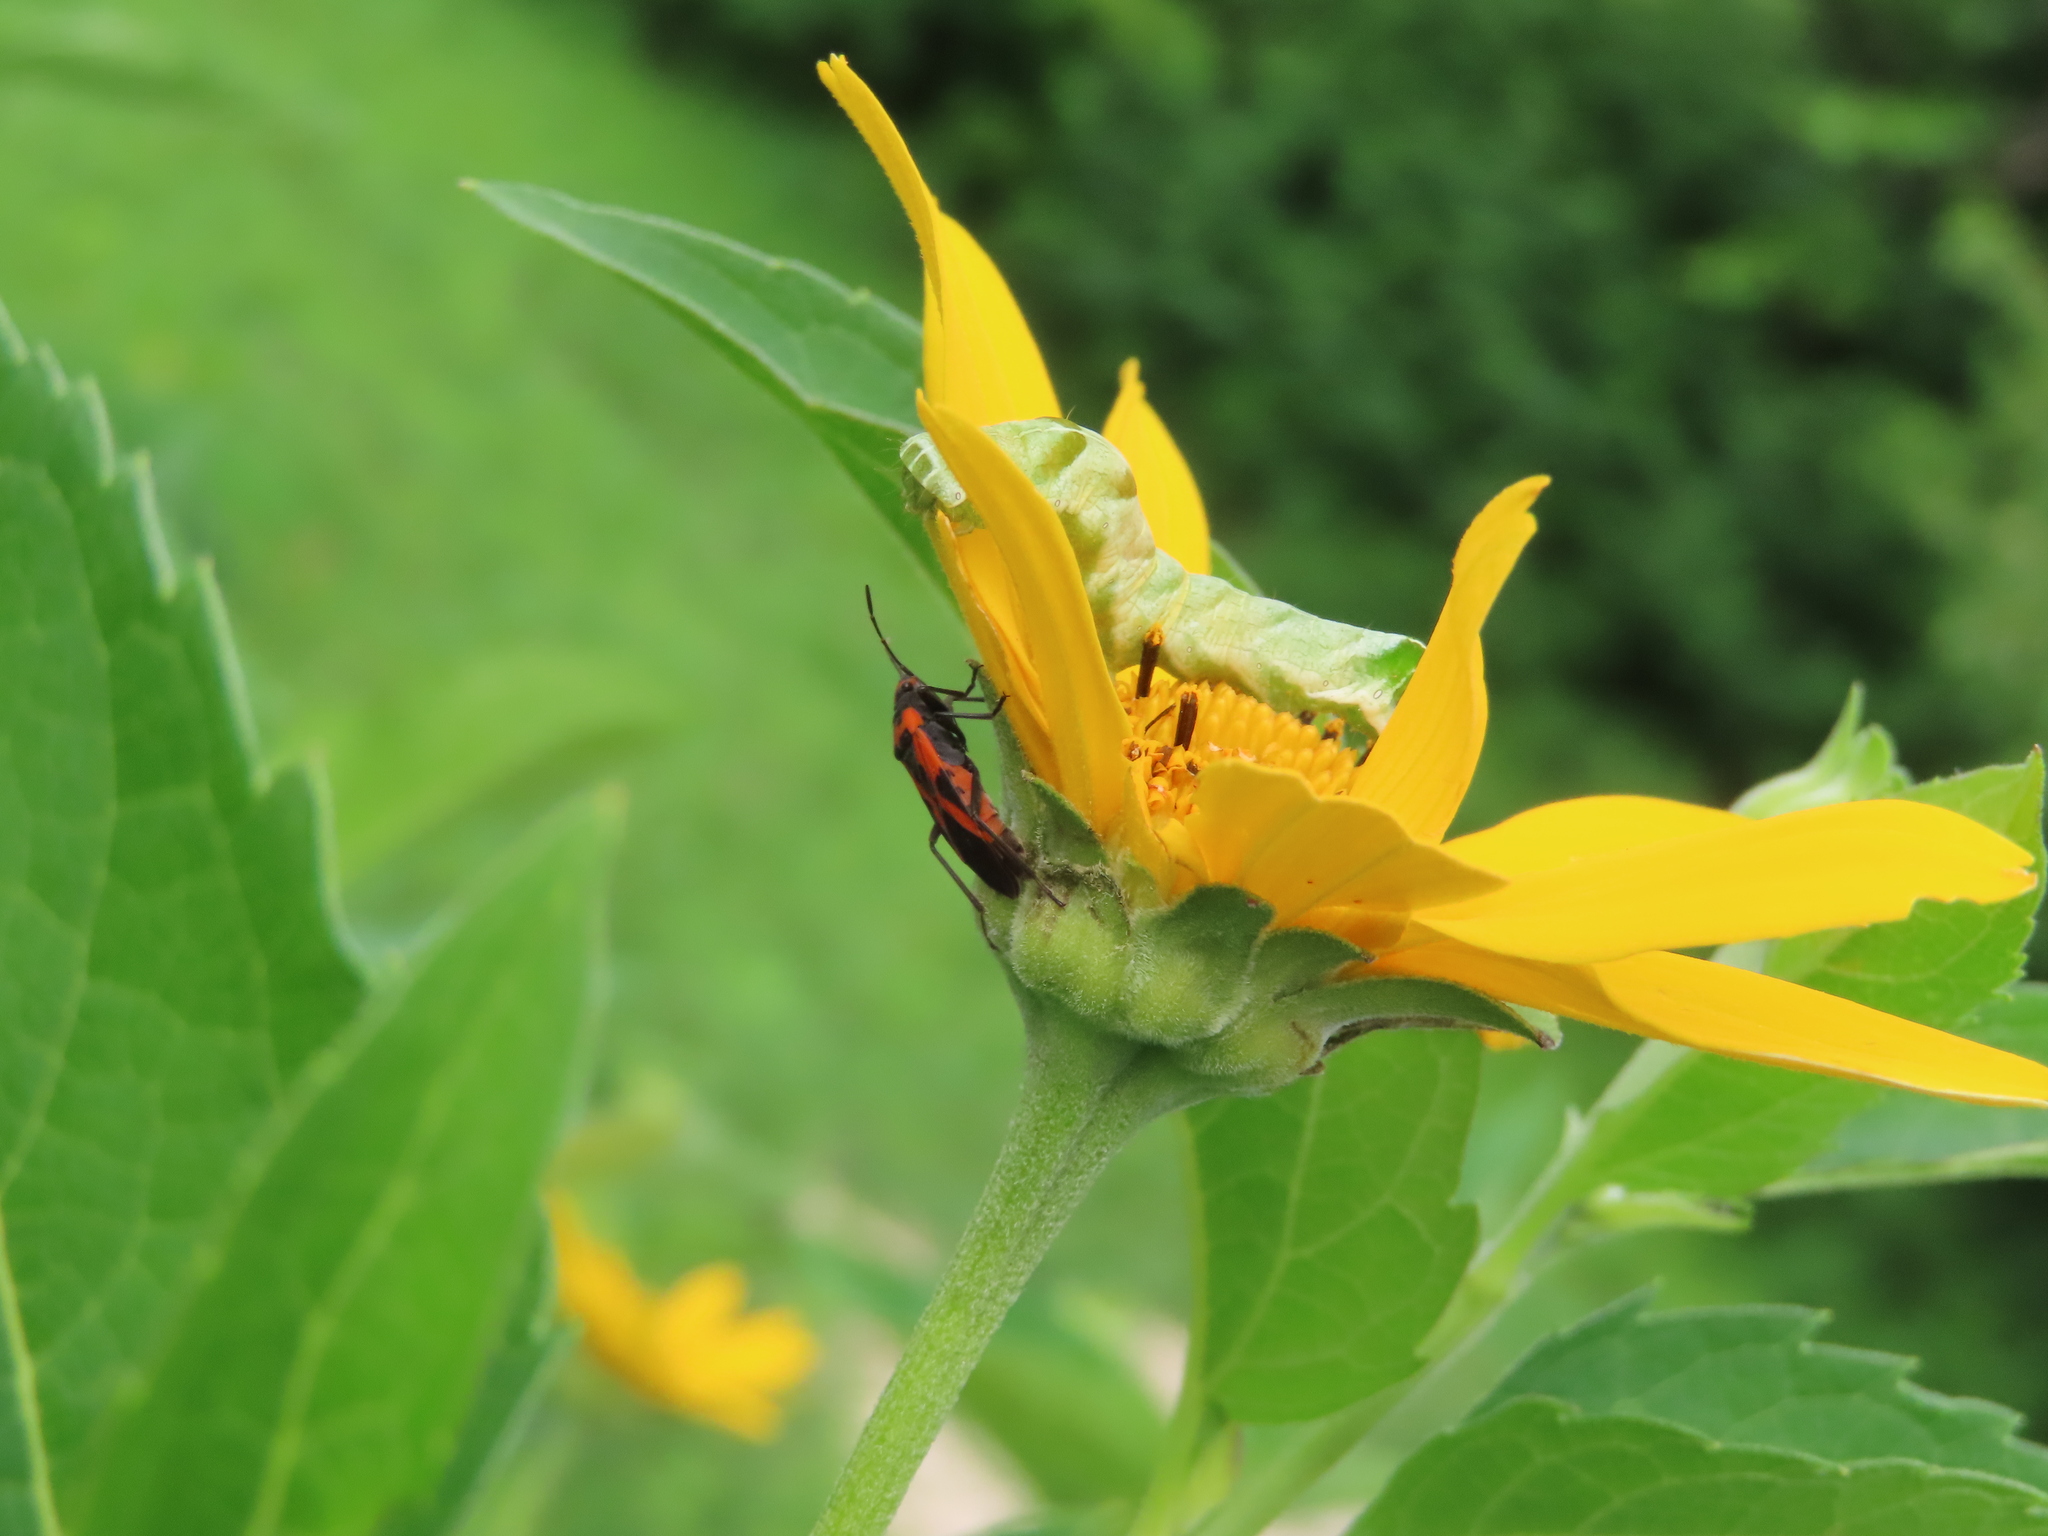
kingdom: Animalia
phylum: Arthropoda
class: Insecta
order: Hemiptera
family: Lygaeidae
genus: Lygaeus
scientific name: Lygaeus turcicus
